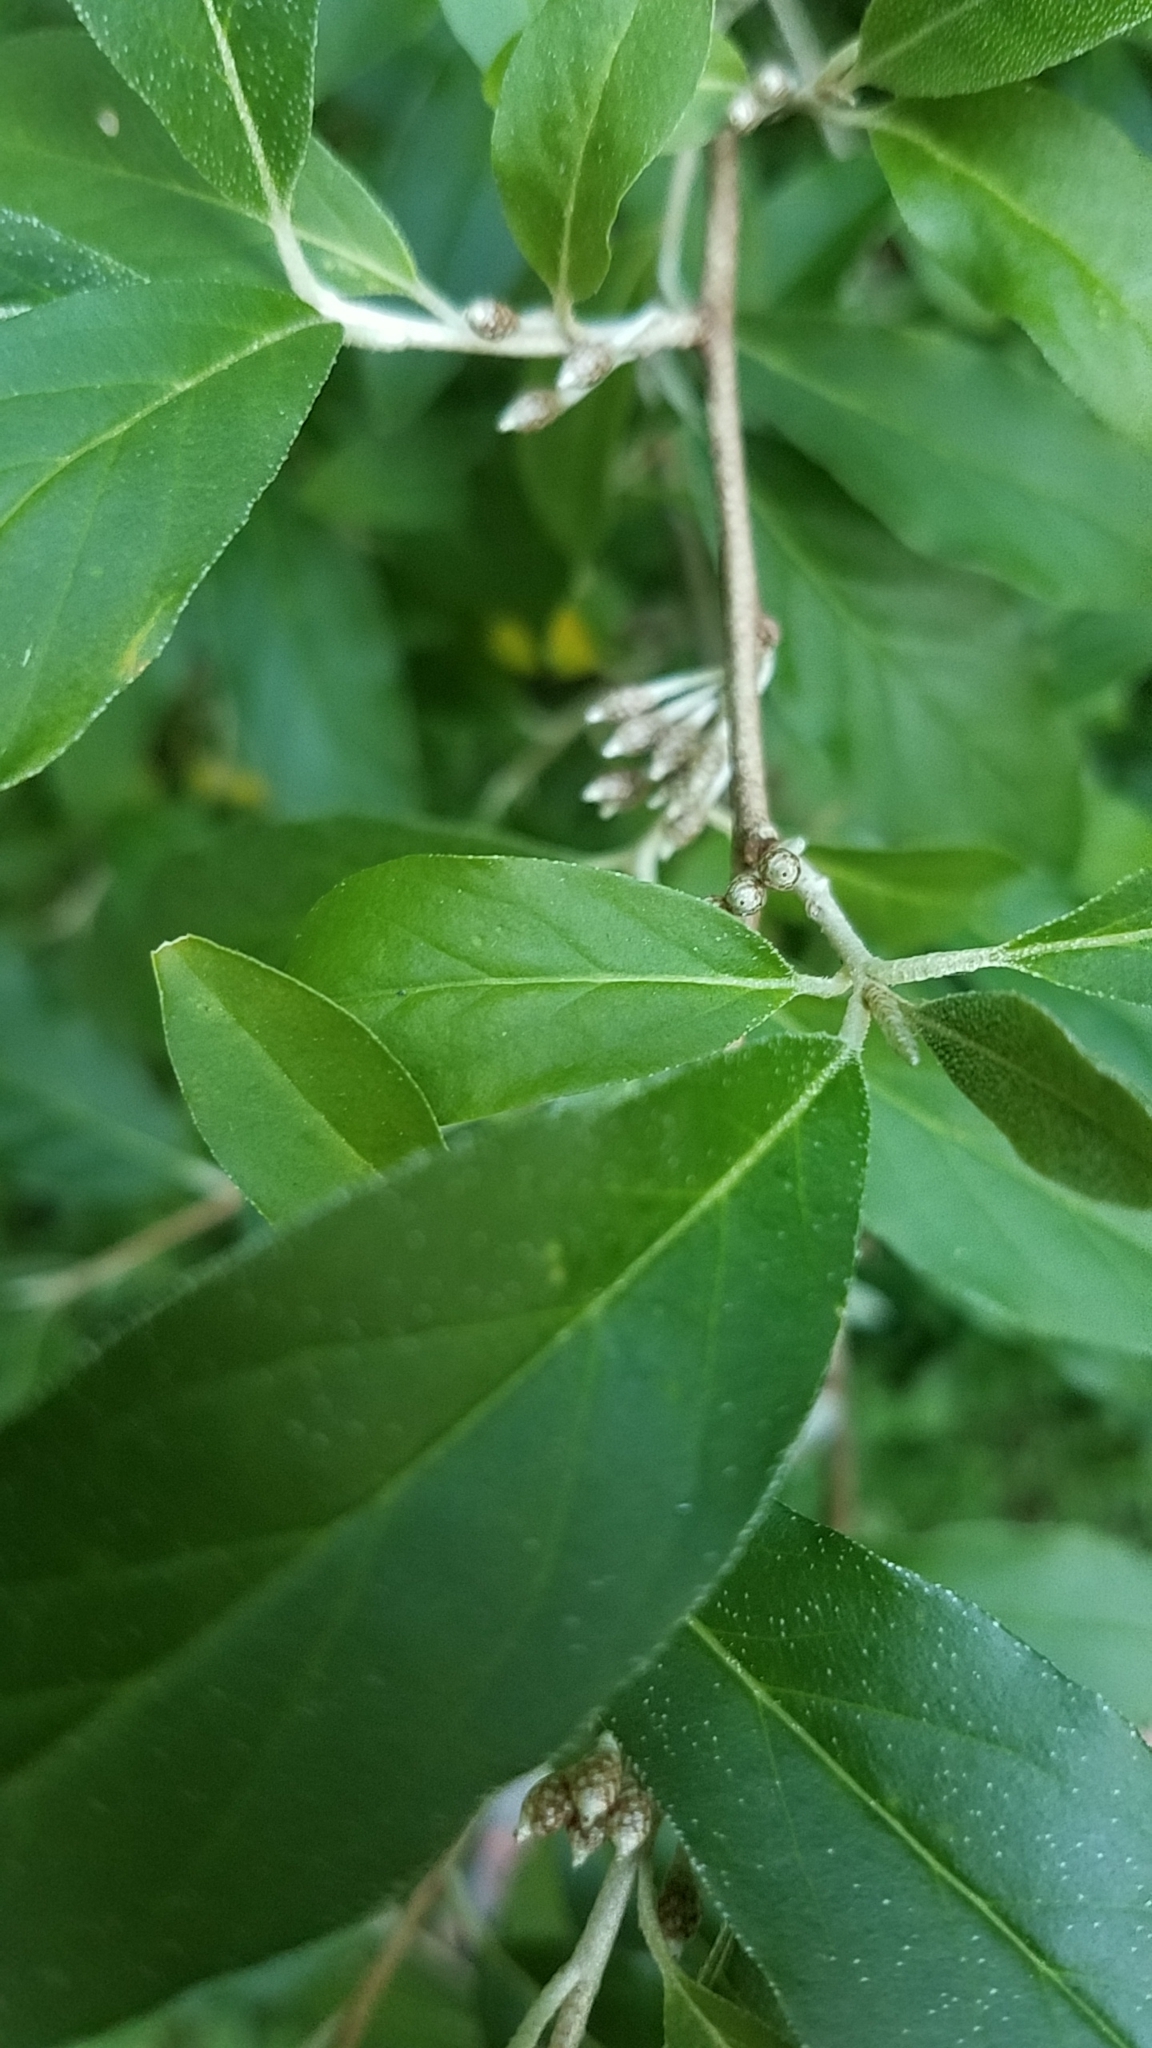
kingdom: Plantae
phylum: Tracheophyta
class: Magnoliopsida
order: Rosales
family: Elaeagnaceae
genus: Elaeagnus
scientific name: Elaeagnus umbellata
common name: Autumn olive
